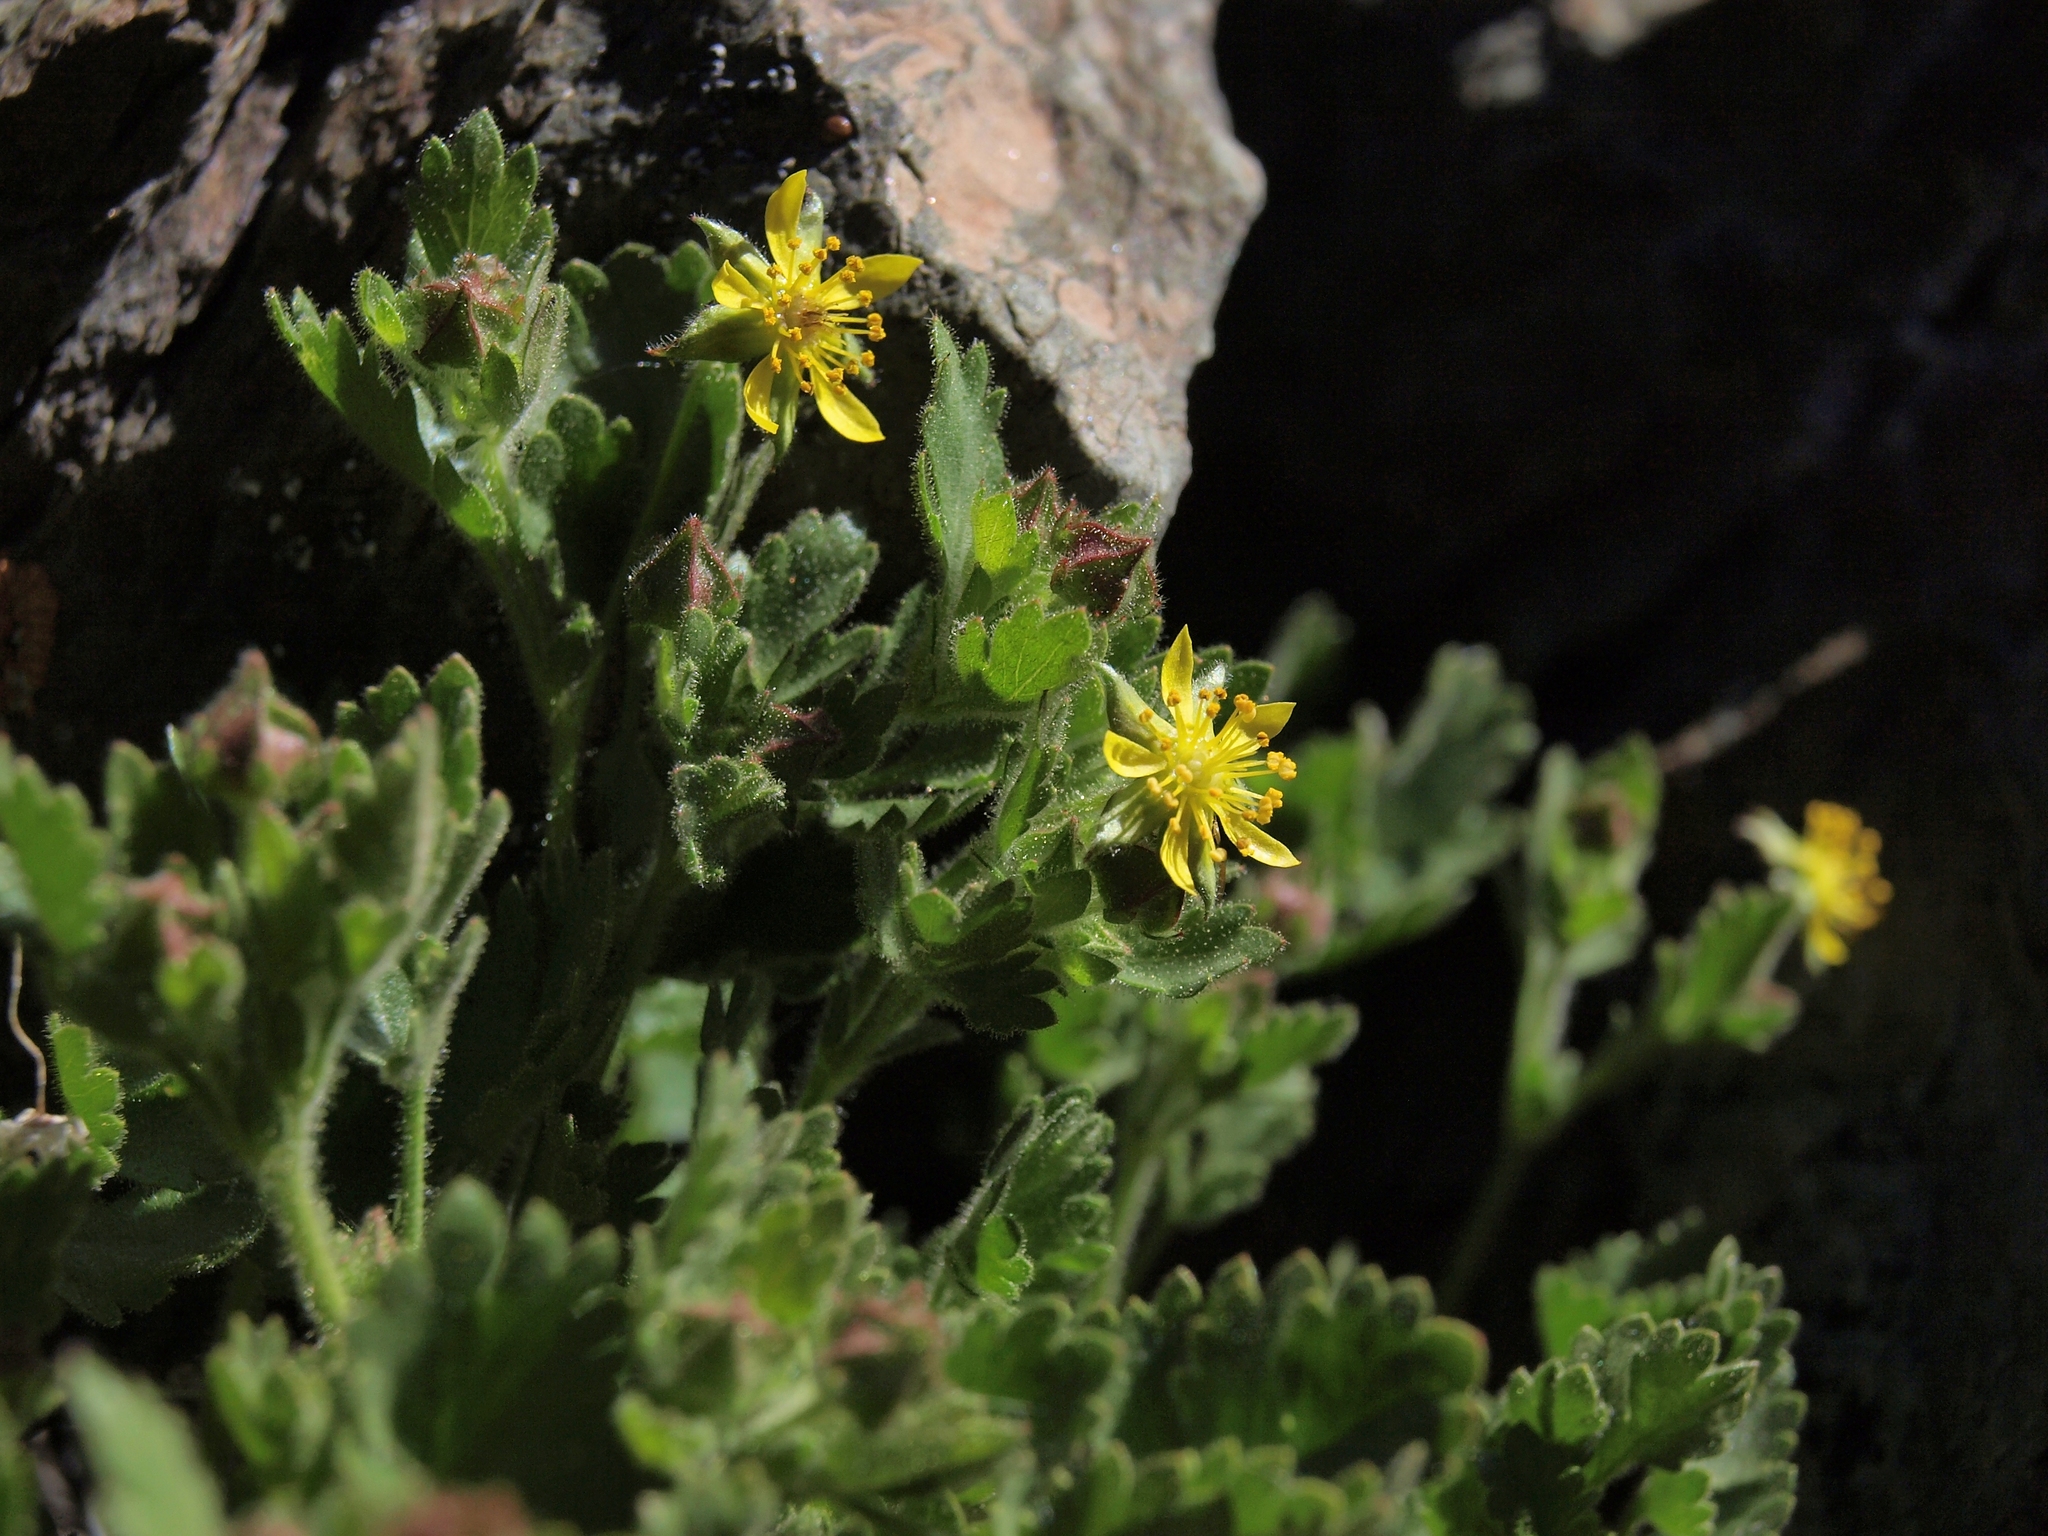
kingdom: Plantae
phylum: Tracheophyta
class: Magnoliopsida
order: Rosales
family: Rosaceae
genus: Potentilla
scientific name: Potentilla saxosa
